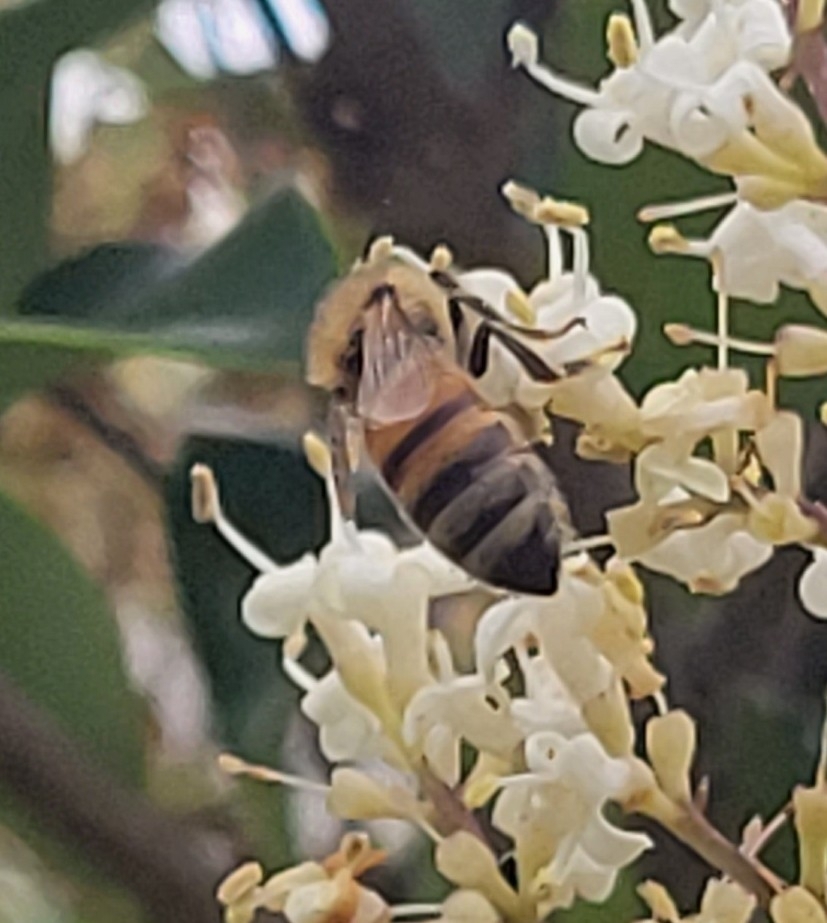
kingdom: Animalia
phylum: Arthropoda
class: Insecta
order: Hymenoptera
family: Apidae
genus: Apis
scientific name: Apis mellifera
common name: Honey bee
